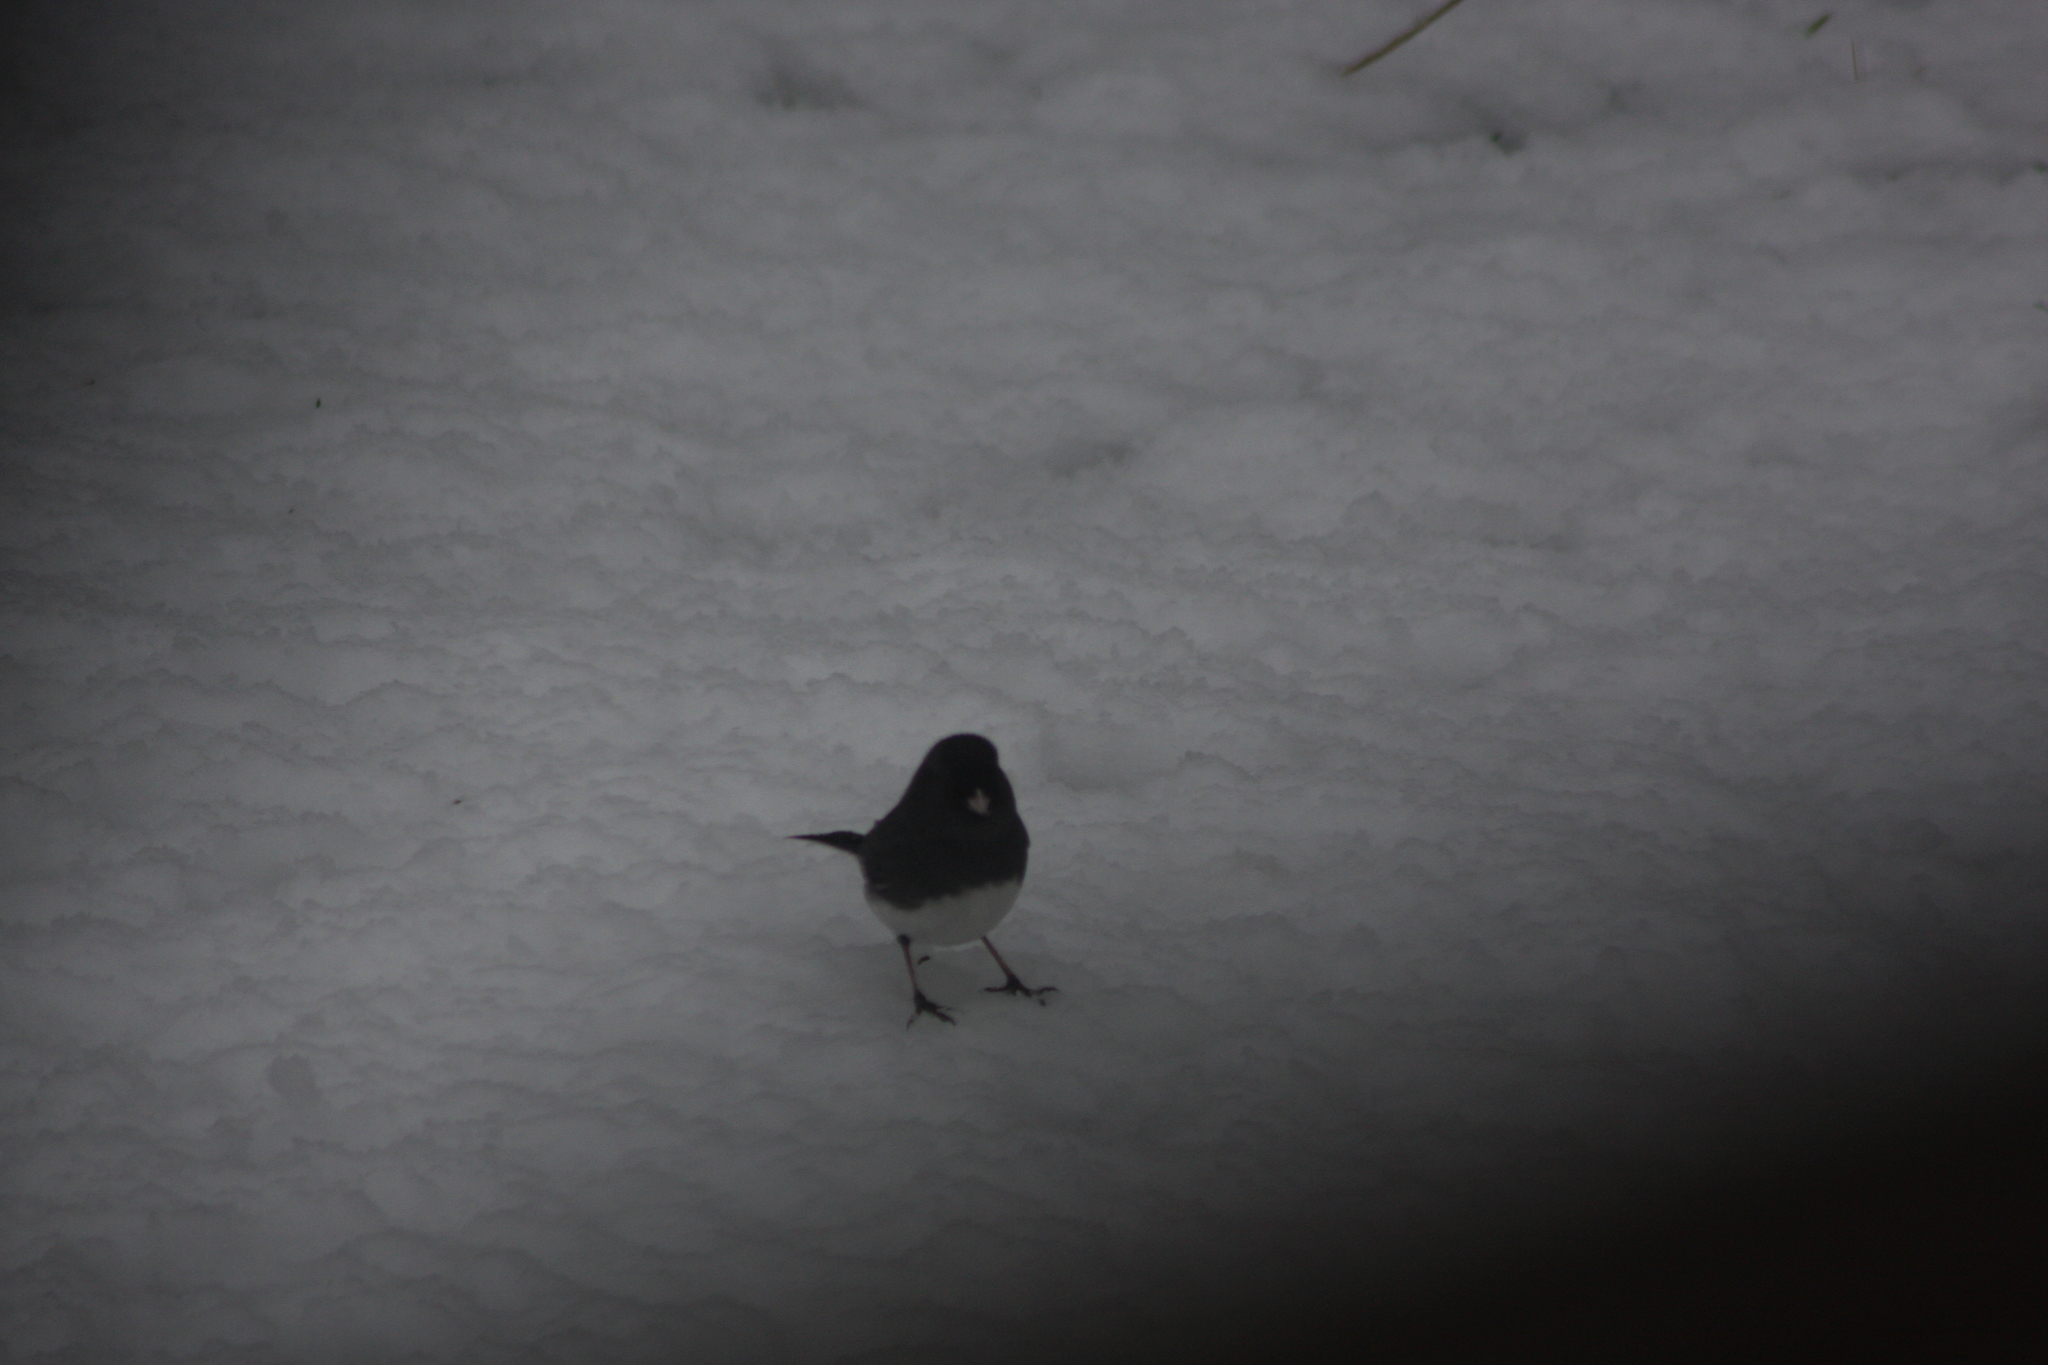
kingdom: Animalia
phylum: Chordata
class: Aves
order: Passeriformes
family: Passerellidae
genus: Junco
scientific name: Junco hyemalis
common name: Dark-eyed junco
